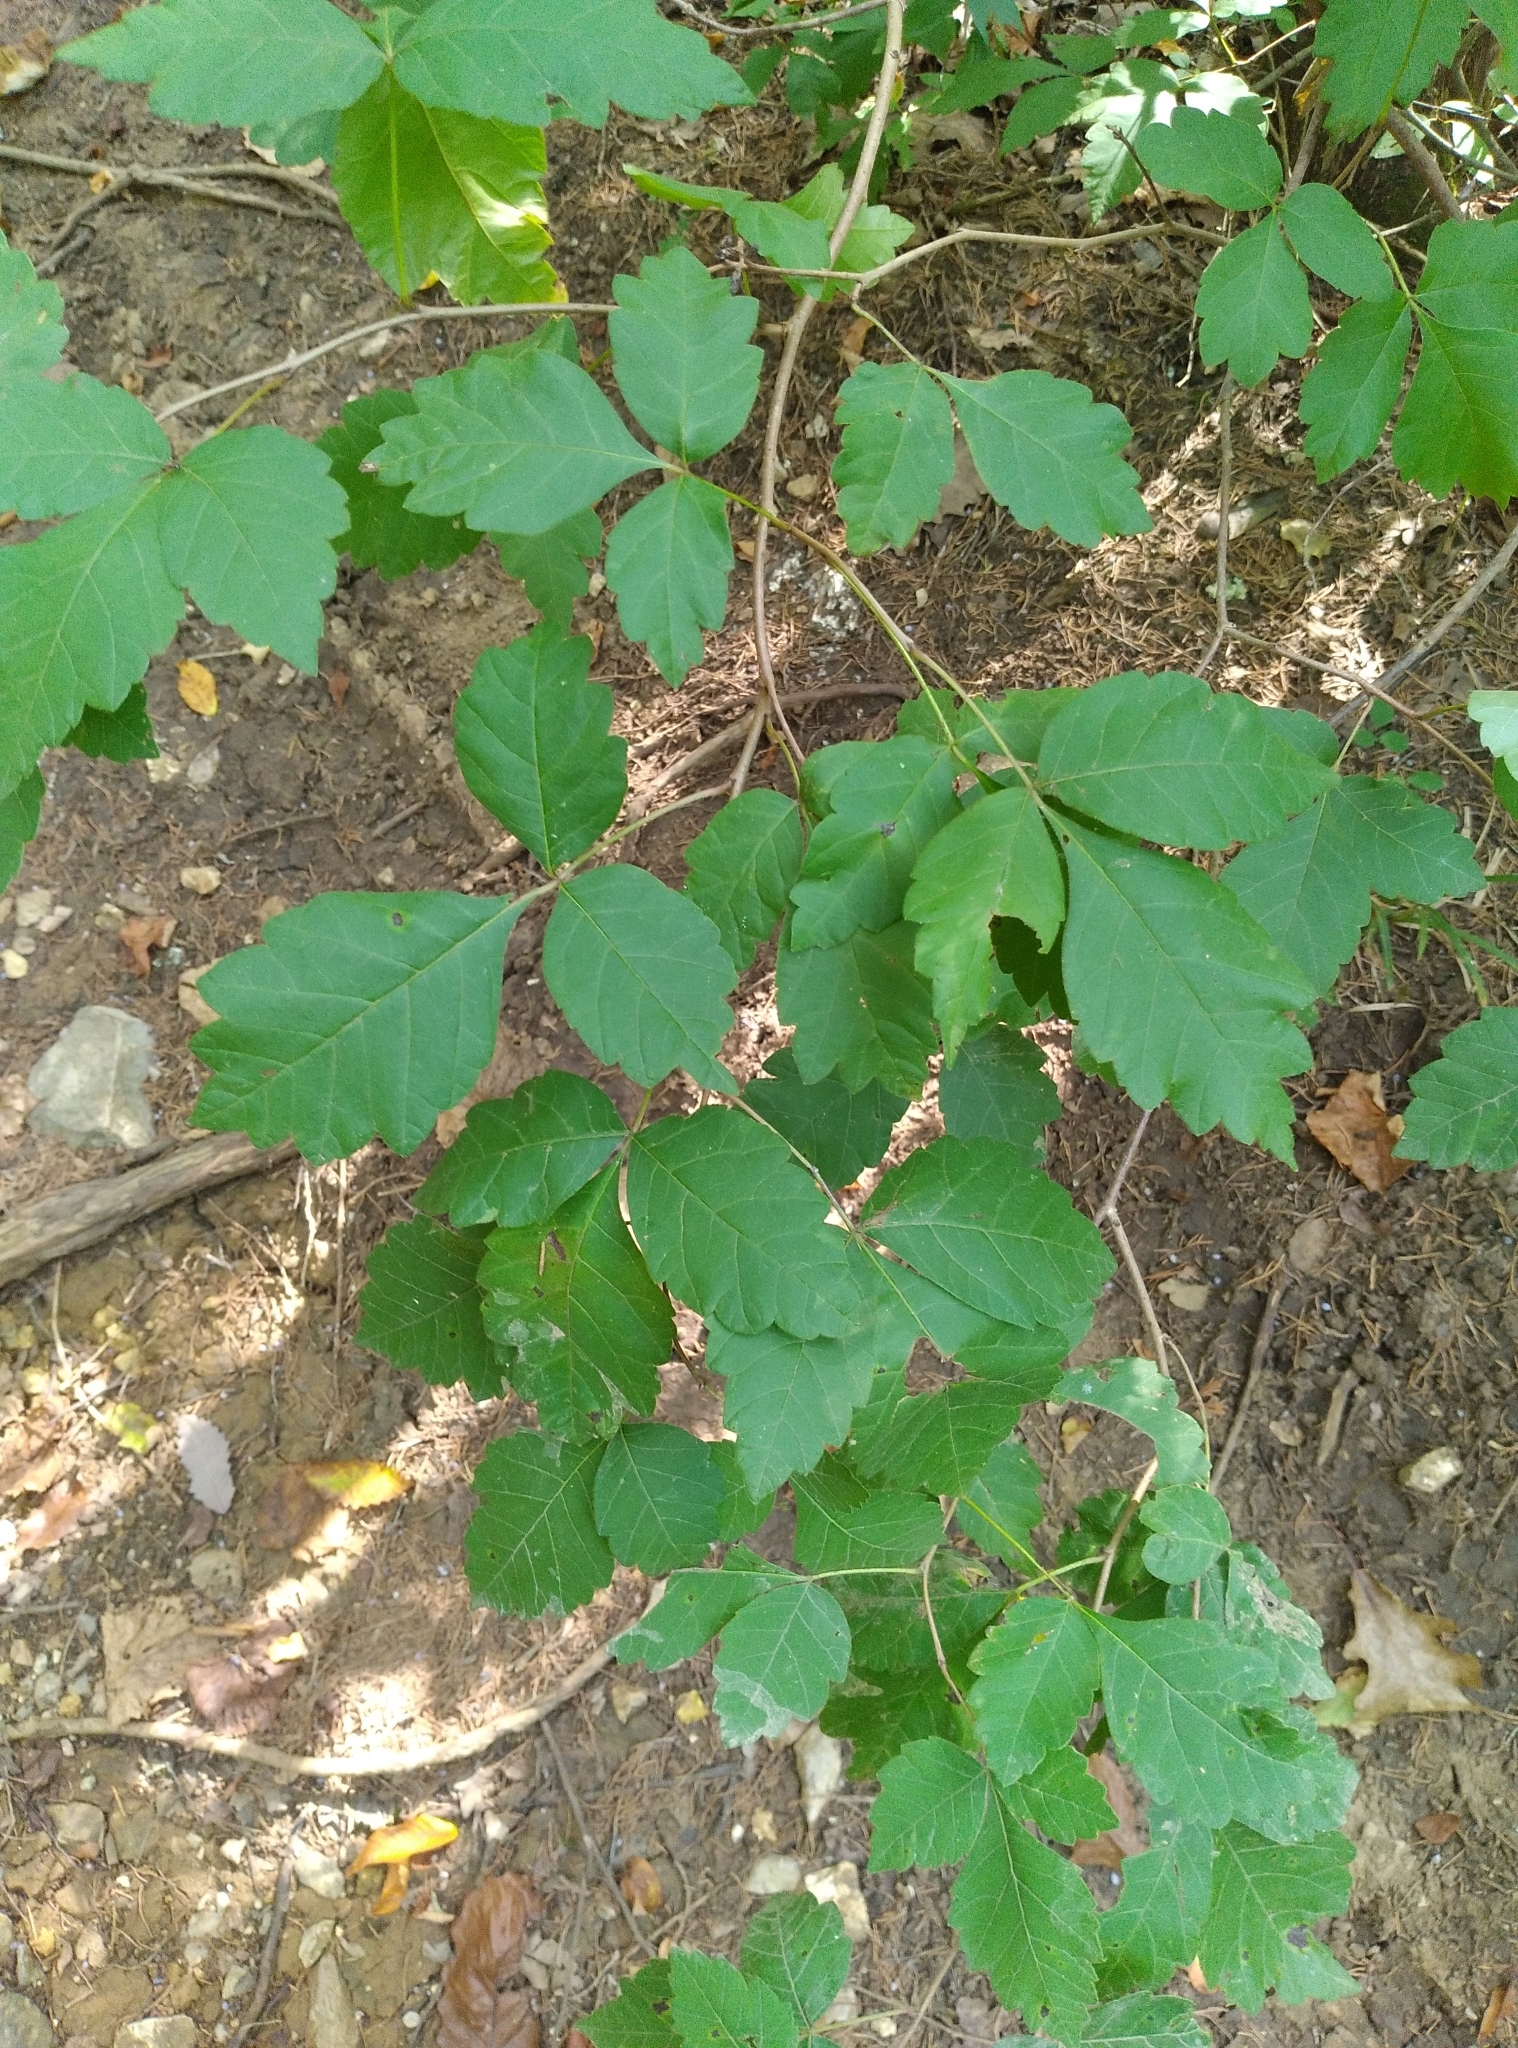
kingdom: Plantae
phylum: Tracheophyta
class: Magnoliopsida
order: Sapindales
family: Anacardiaceae
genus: Toxicodendron
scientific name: Toxicodendron radicans
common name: Poison ivy
